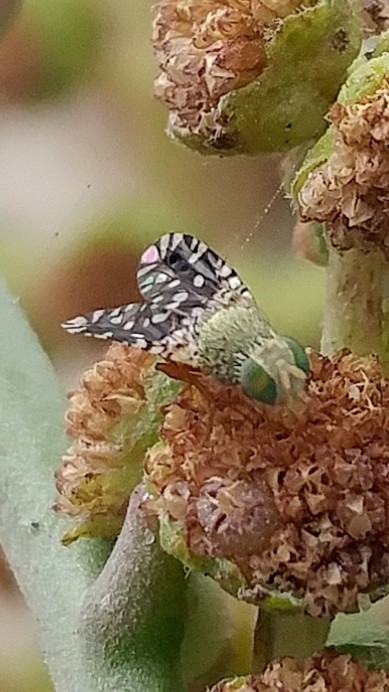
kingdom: Animalia
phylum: Arthropoda
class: Insecta
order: Diptera
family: Tephritidae
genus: Euaresta
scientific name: Euaresta stelligera
